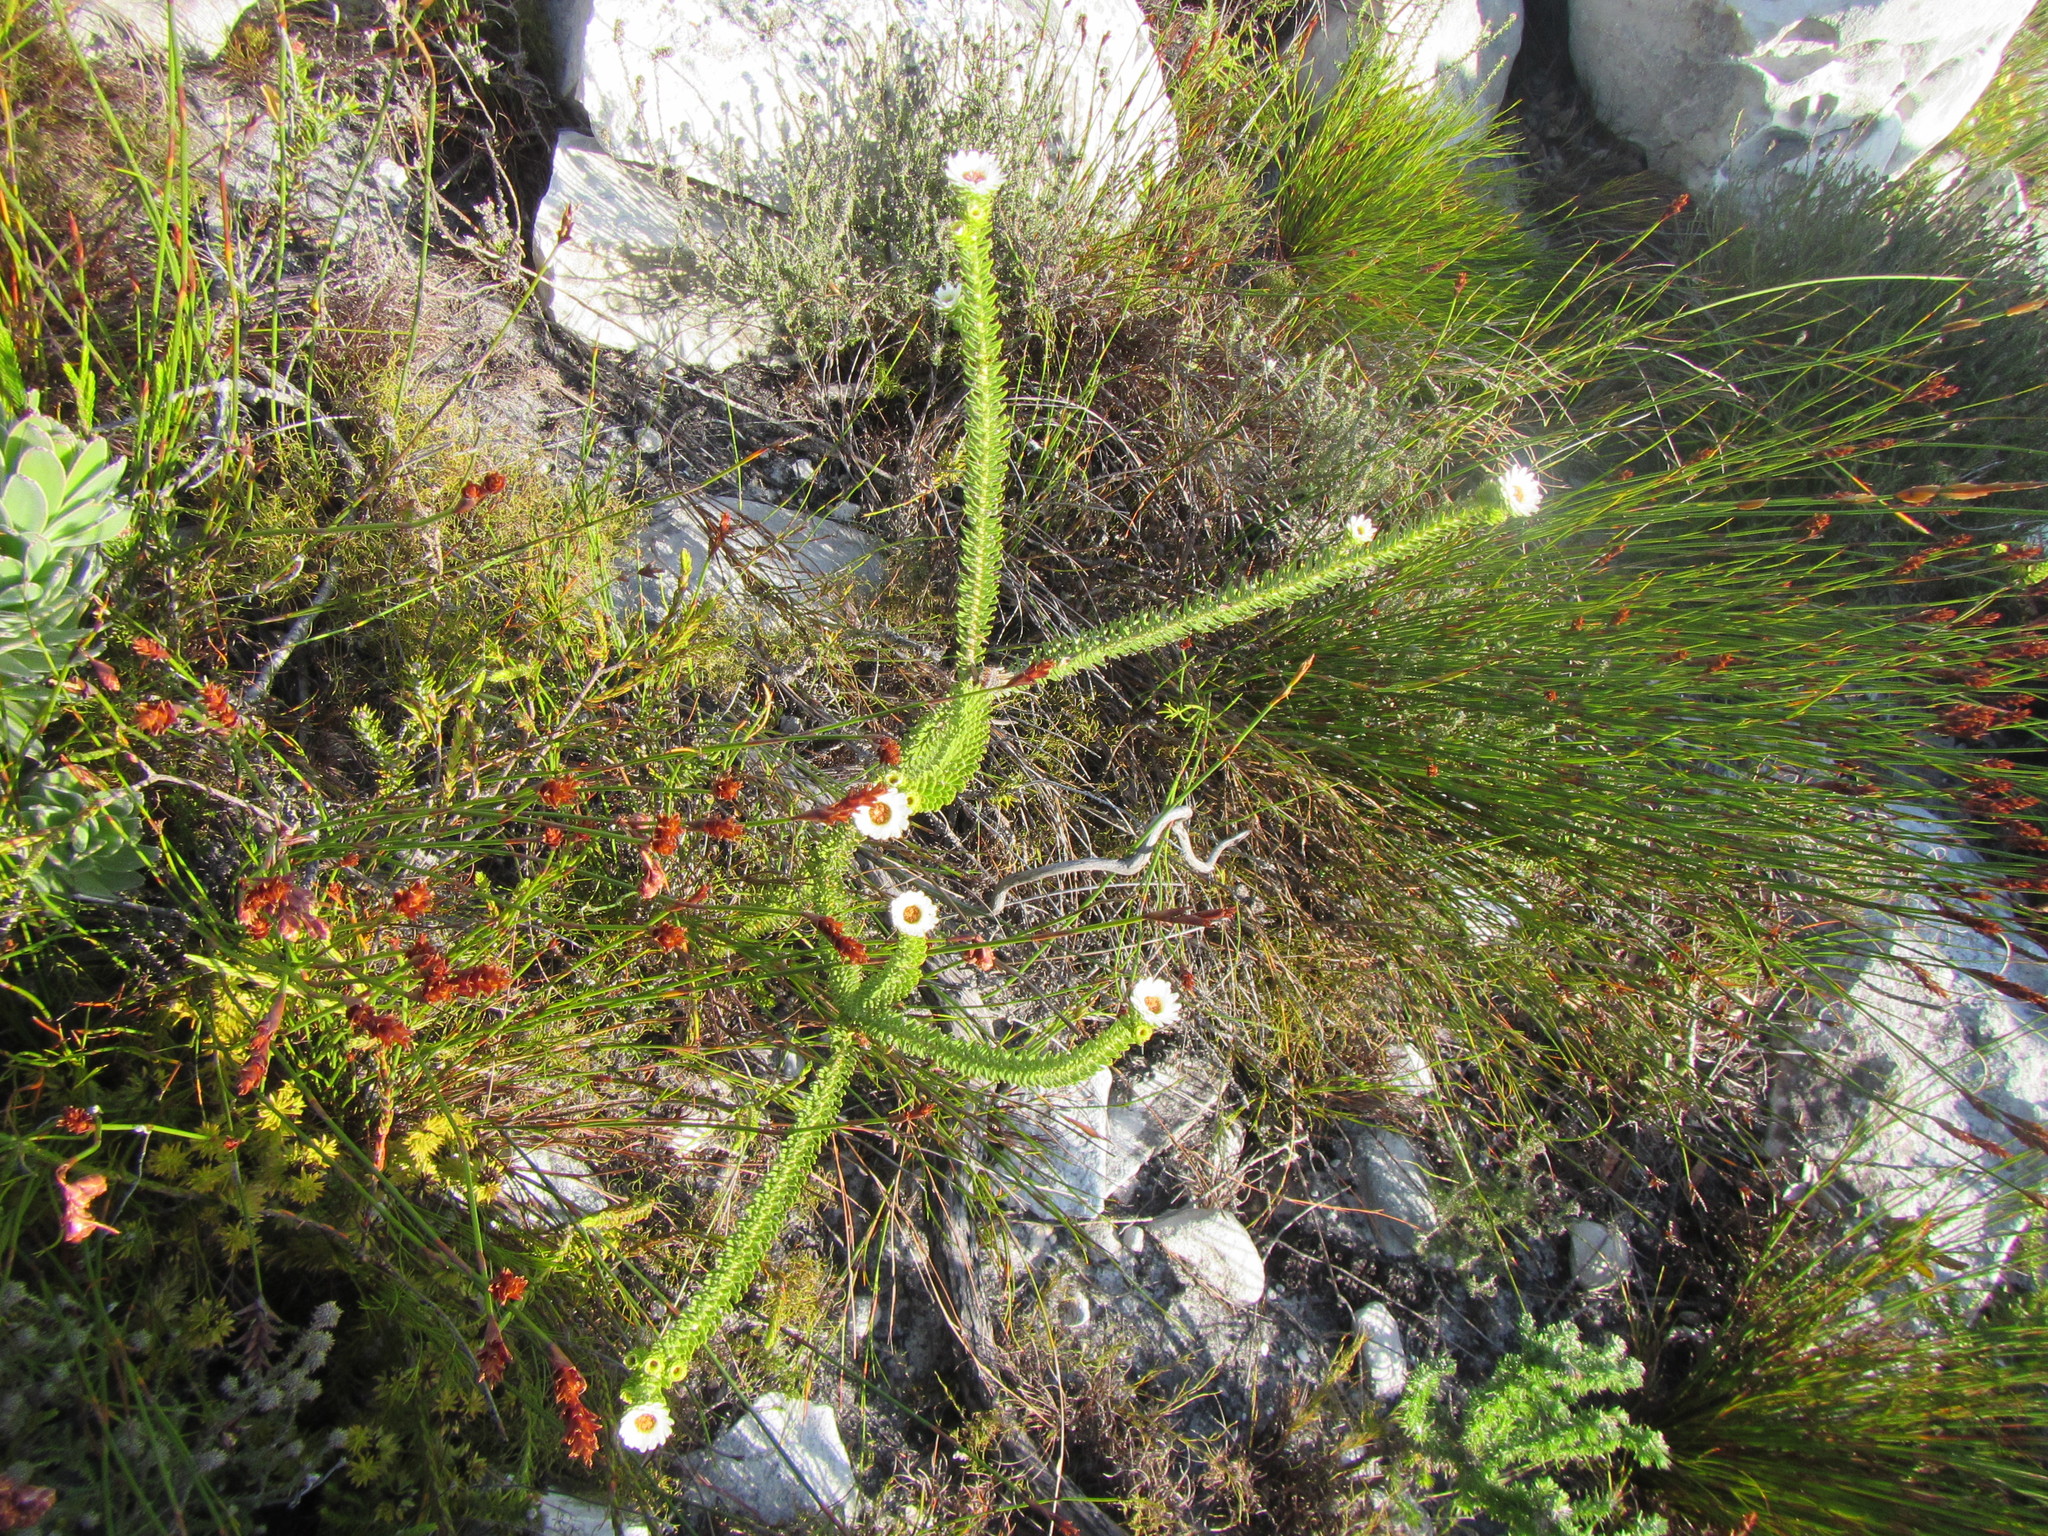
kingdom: Plantae
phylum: Tracheophyta
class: Magnoliopsida
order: Bruniales
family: Bruniaceae
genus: Staavia
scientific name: Staavia dodii
